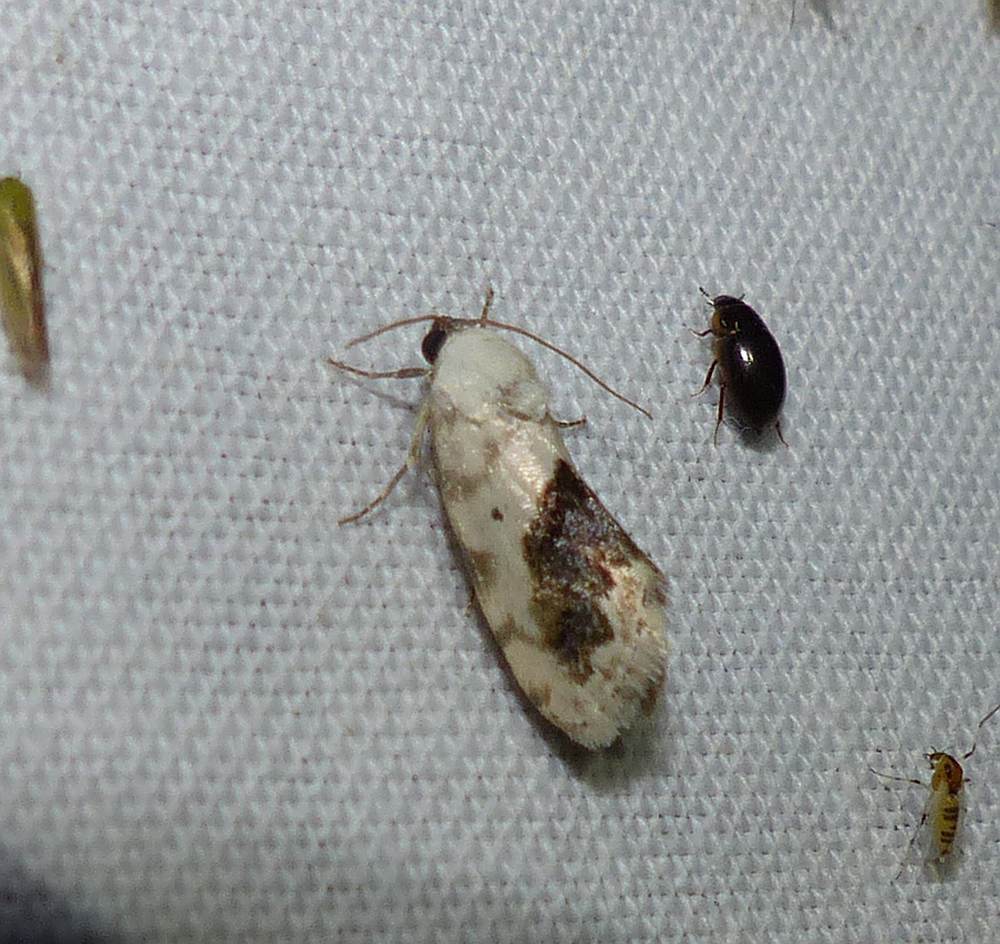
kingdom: Animalia
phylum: Arthropoda
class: Insecta
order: Lepidoptera
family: Noctuidae
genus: Acontia
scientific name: Acontia erastrioides
